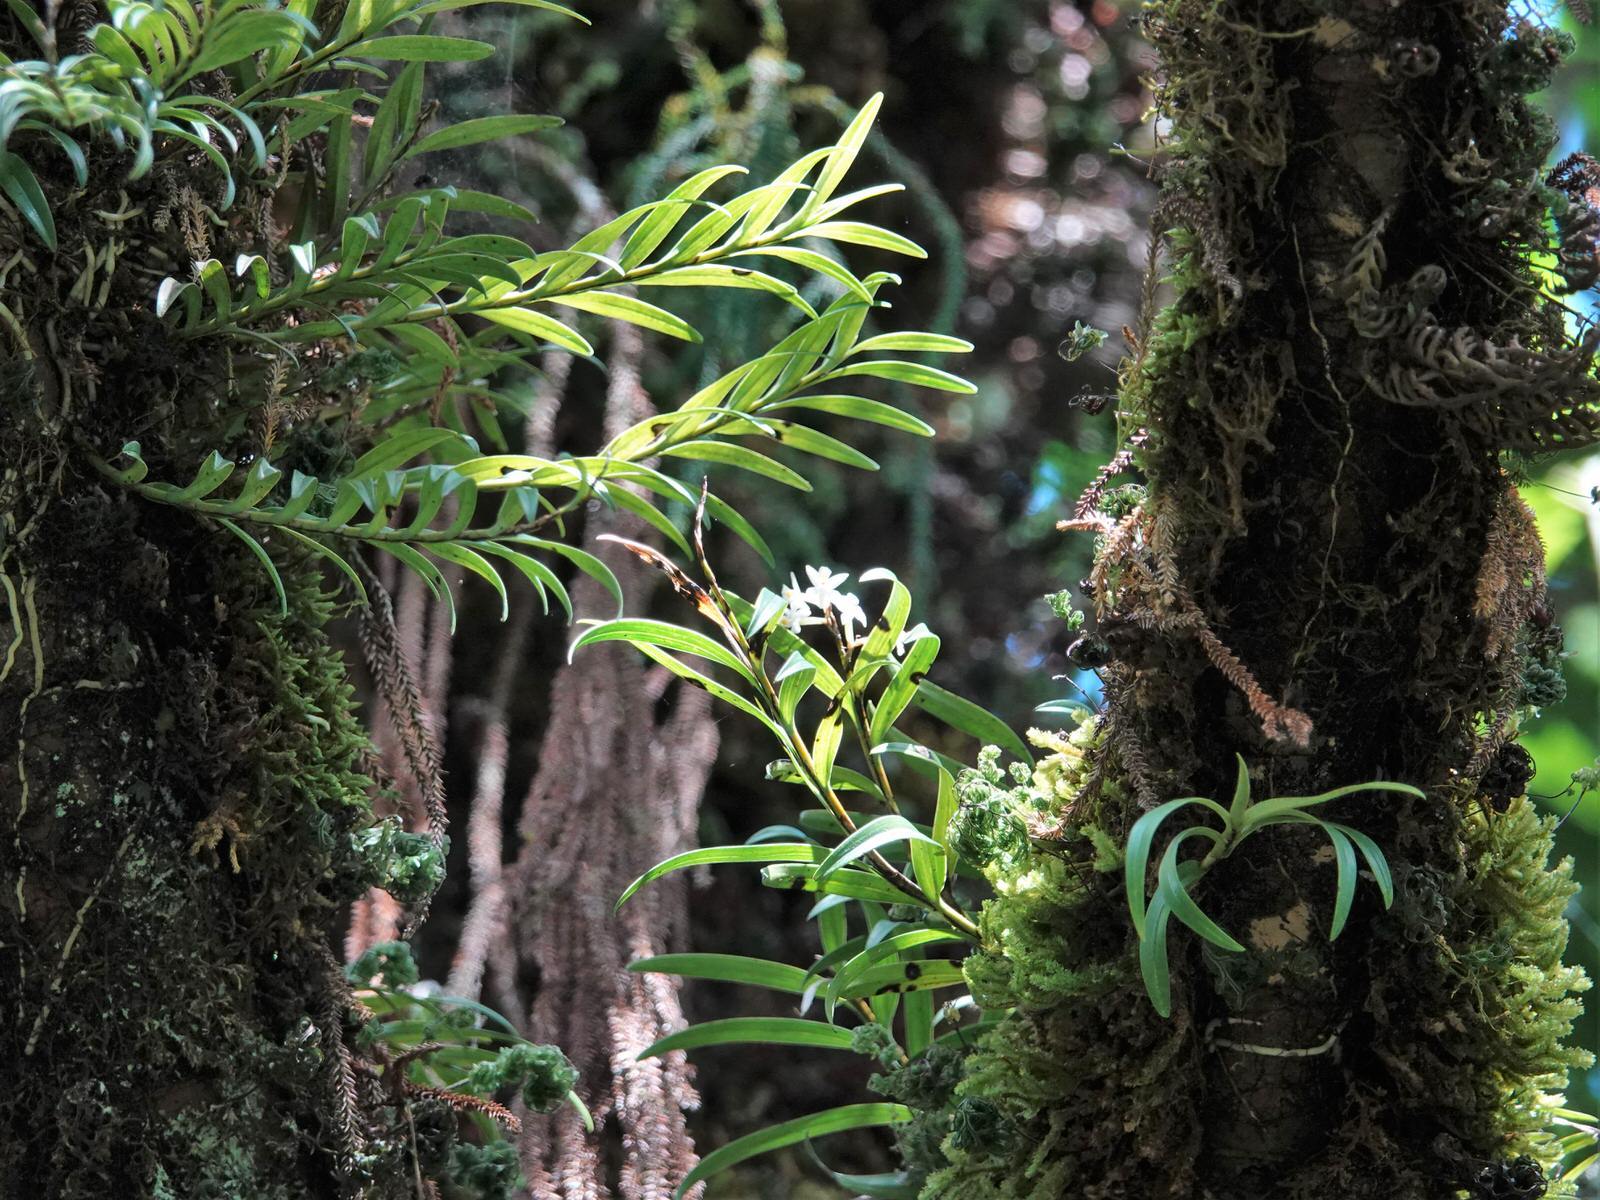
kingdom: Plantae
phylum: Tracheophyta
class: Liliopsida
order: Asparagales
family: Orchidaceae
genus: Earina
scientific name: Earina autumnalis
